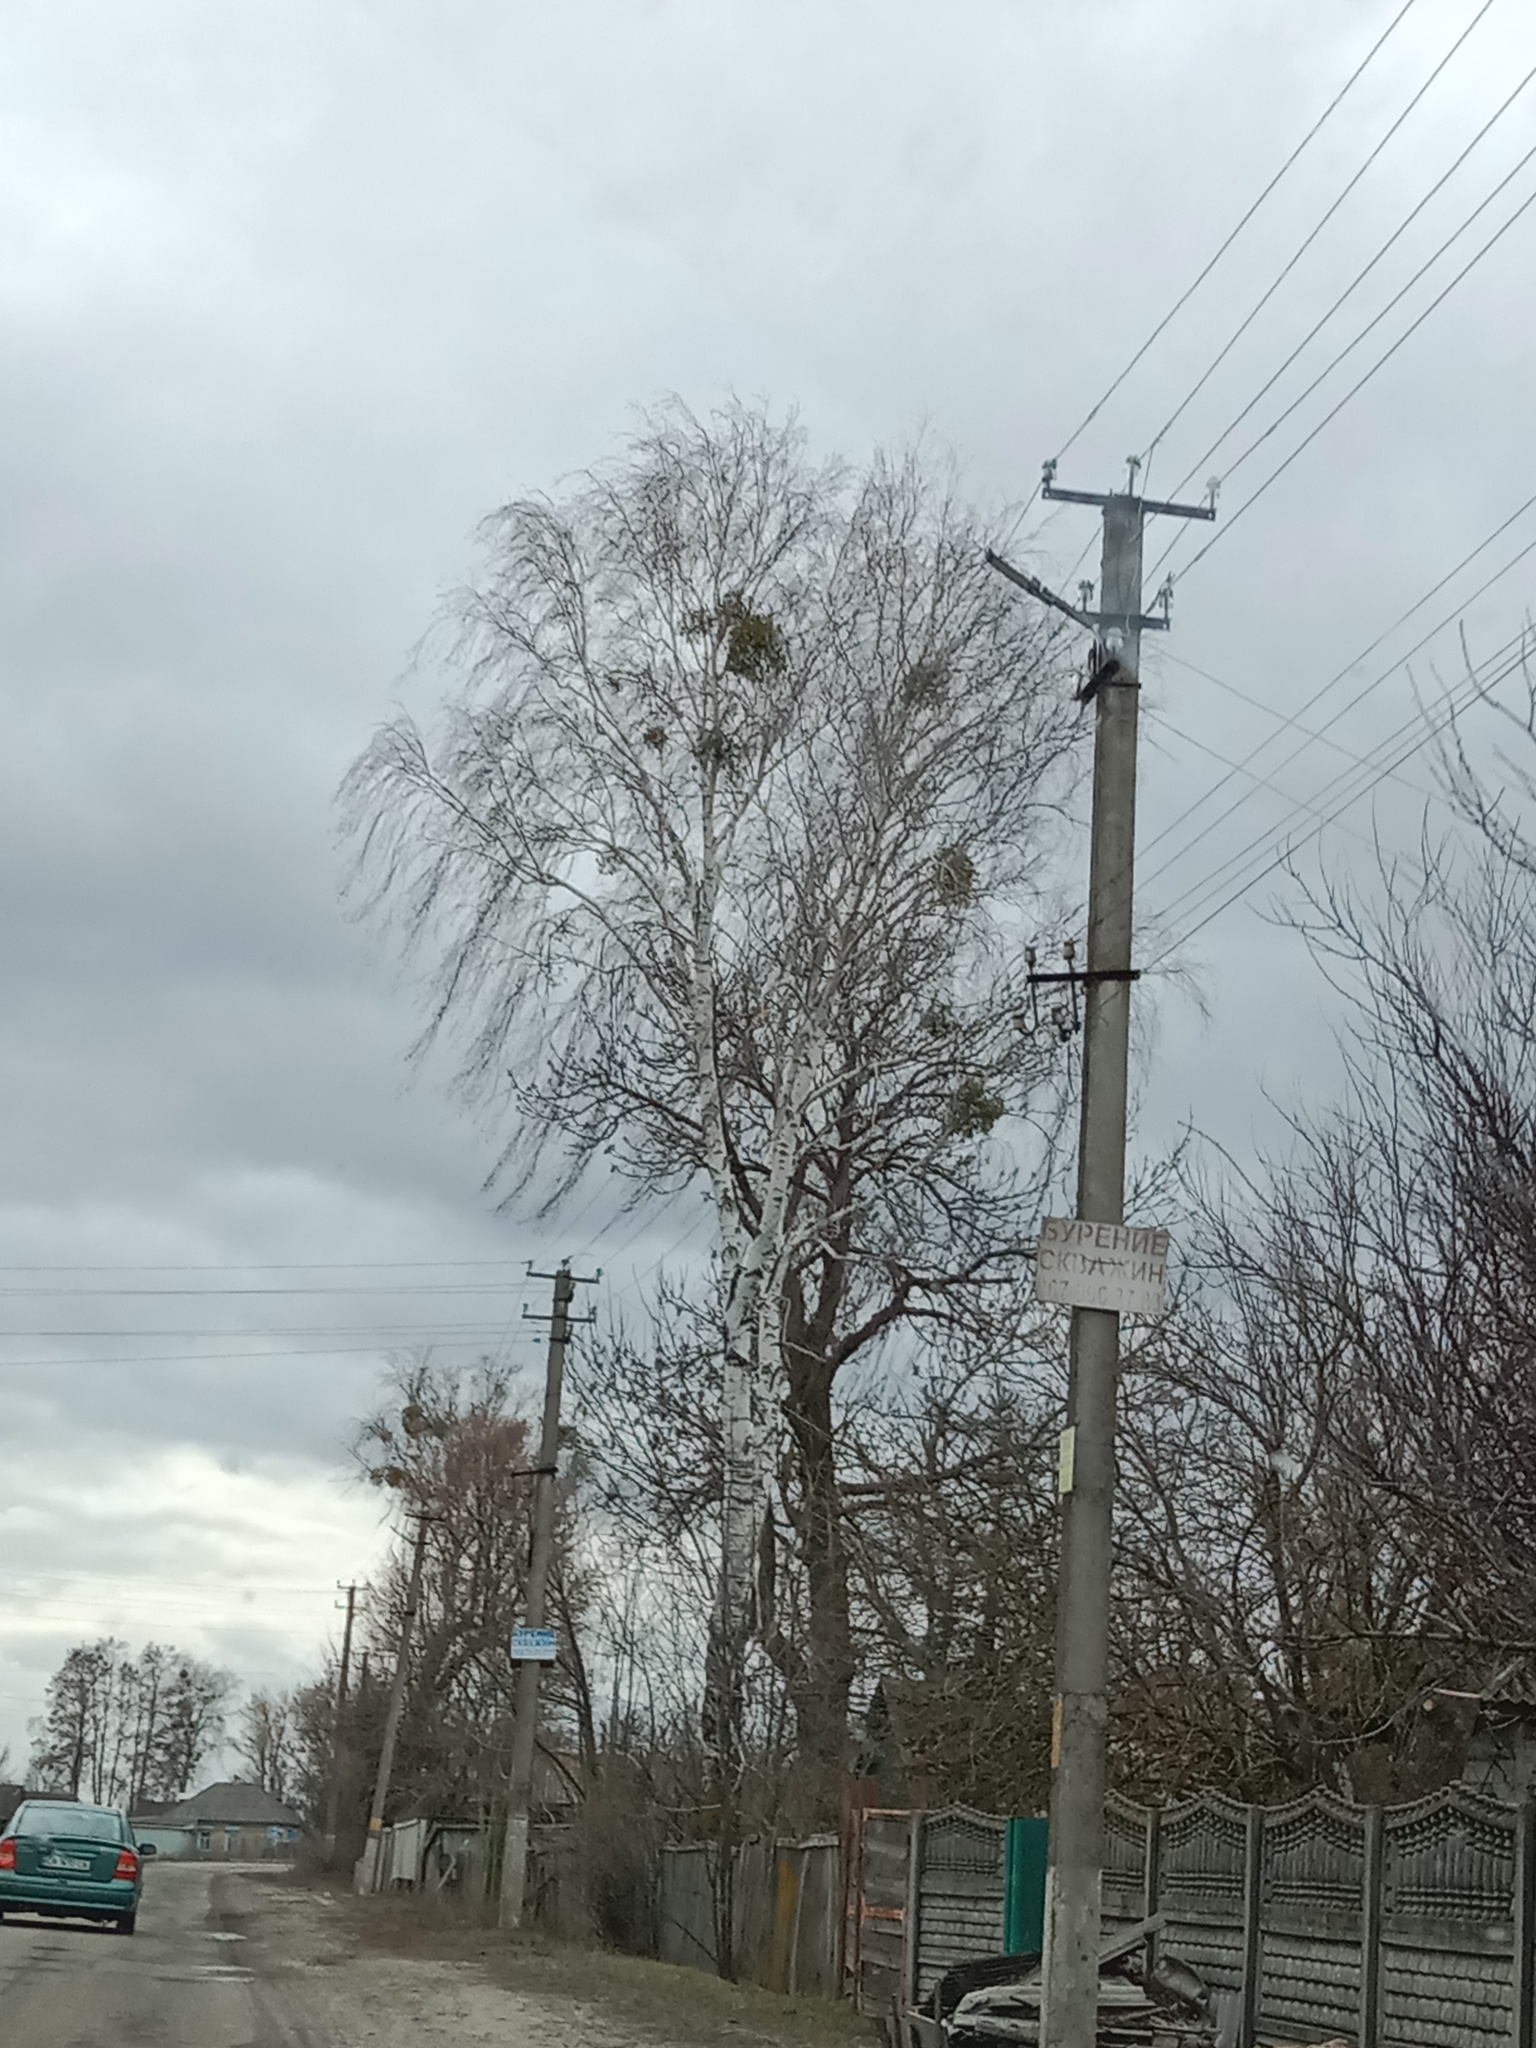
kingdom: Plantae
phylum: Tracheophyta
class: Magnoliopsida
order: Santalales
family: Viscaceae
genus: Viscum
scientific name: Viscum album
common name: Mistletoe
